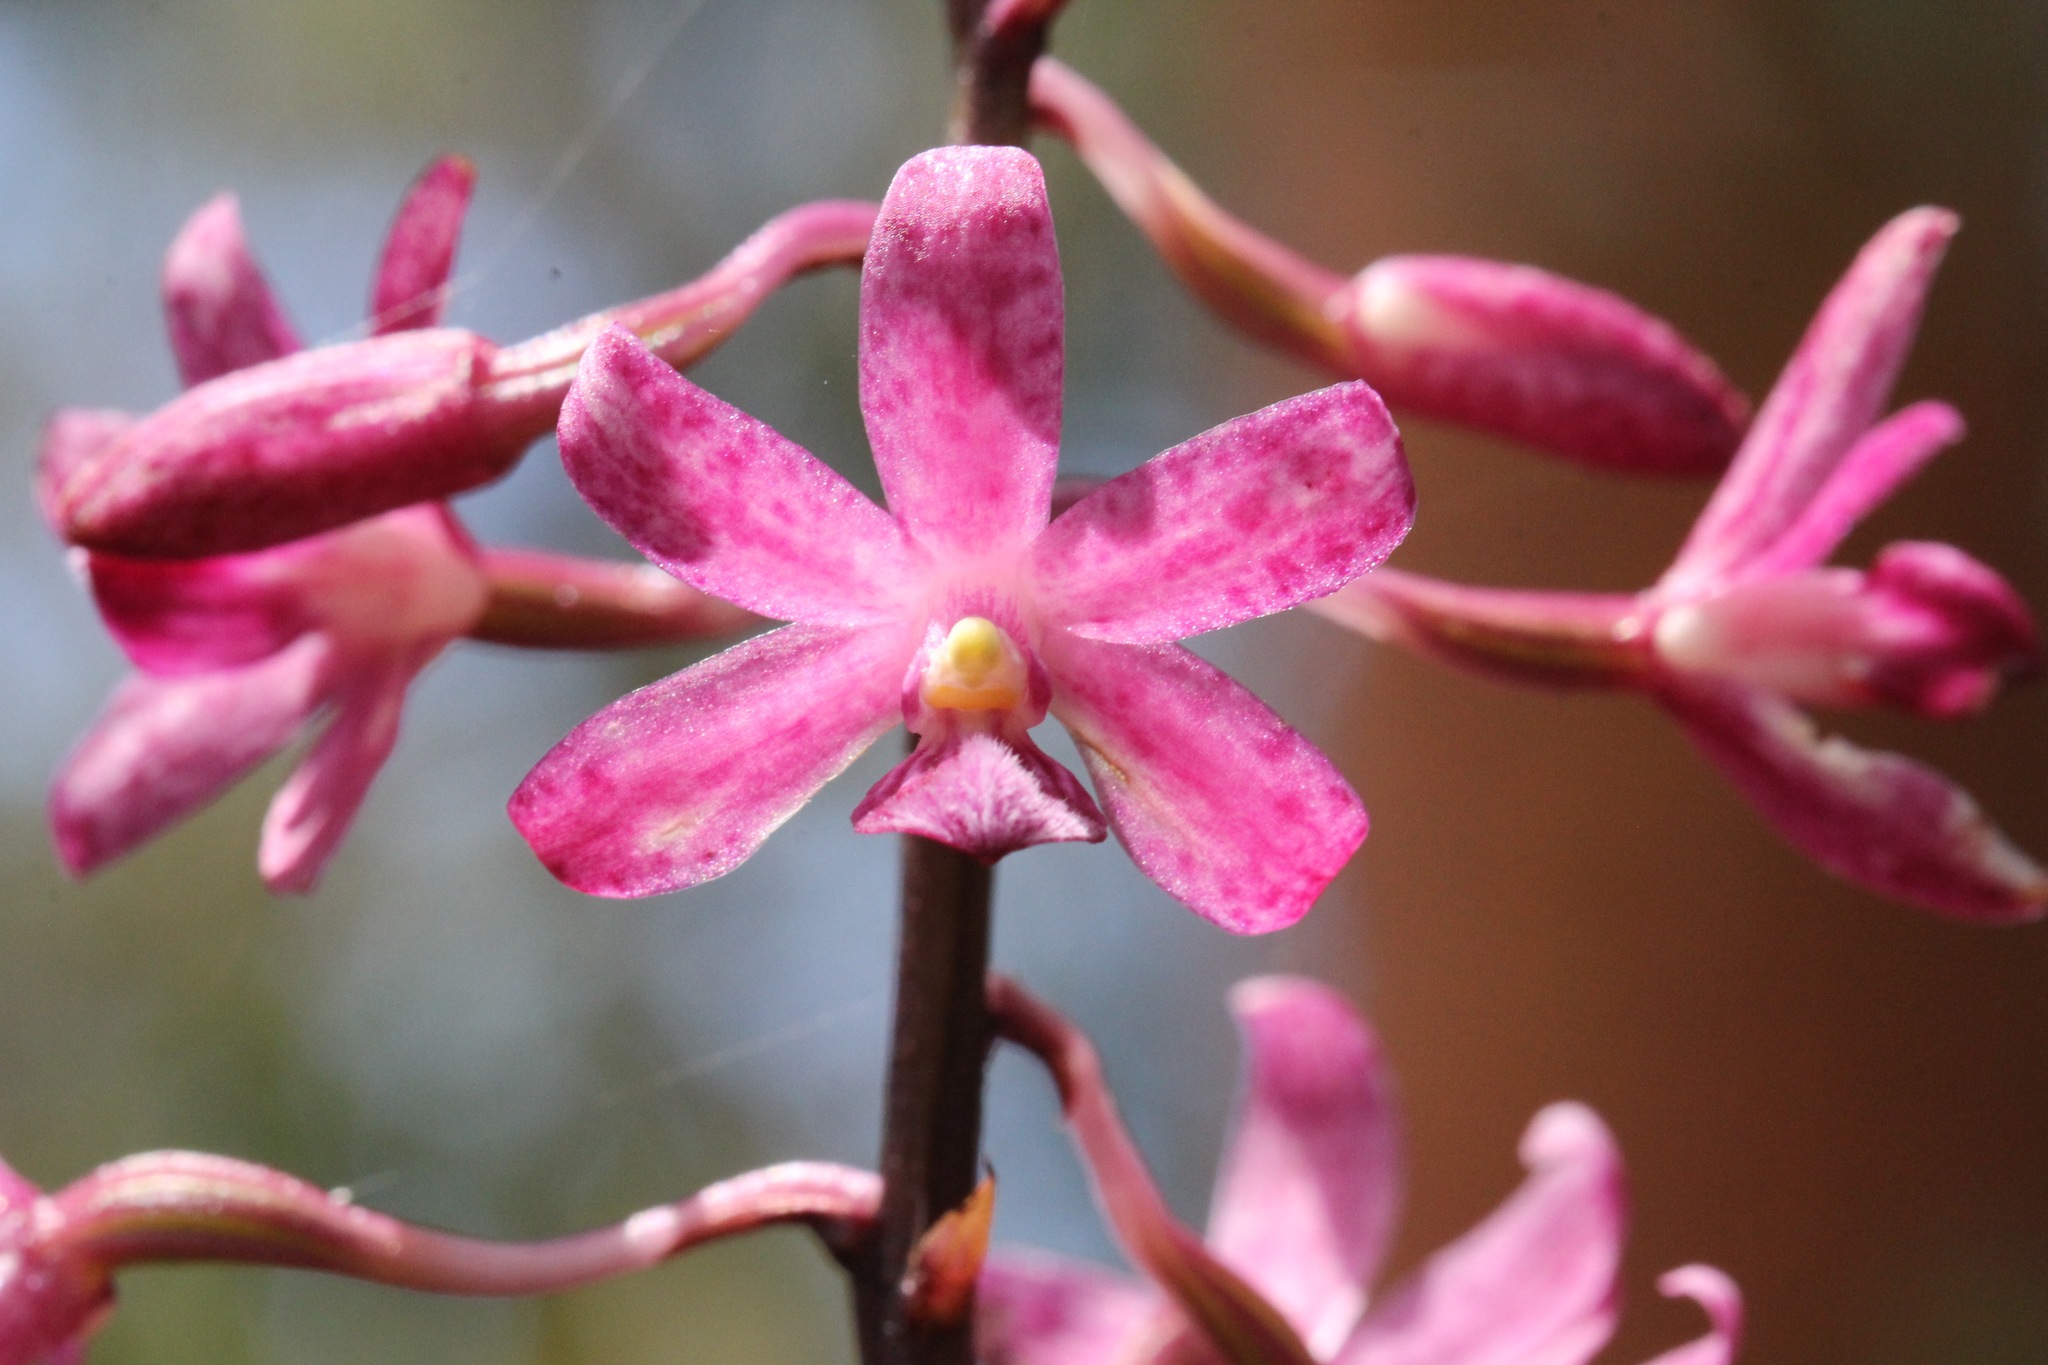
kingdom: Plantae
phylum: Tracheophyta
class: Liliopsida
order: Asparagales
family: Orchidaceae
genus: Dipodium
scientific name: Dipodium roseum
